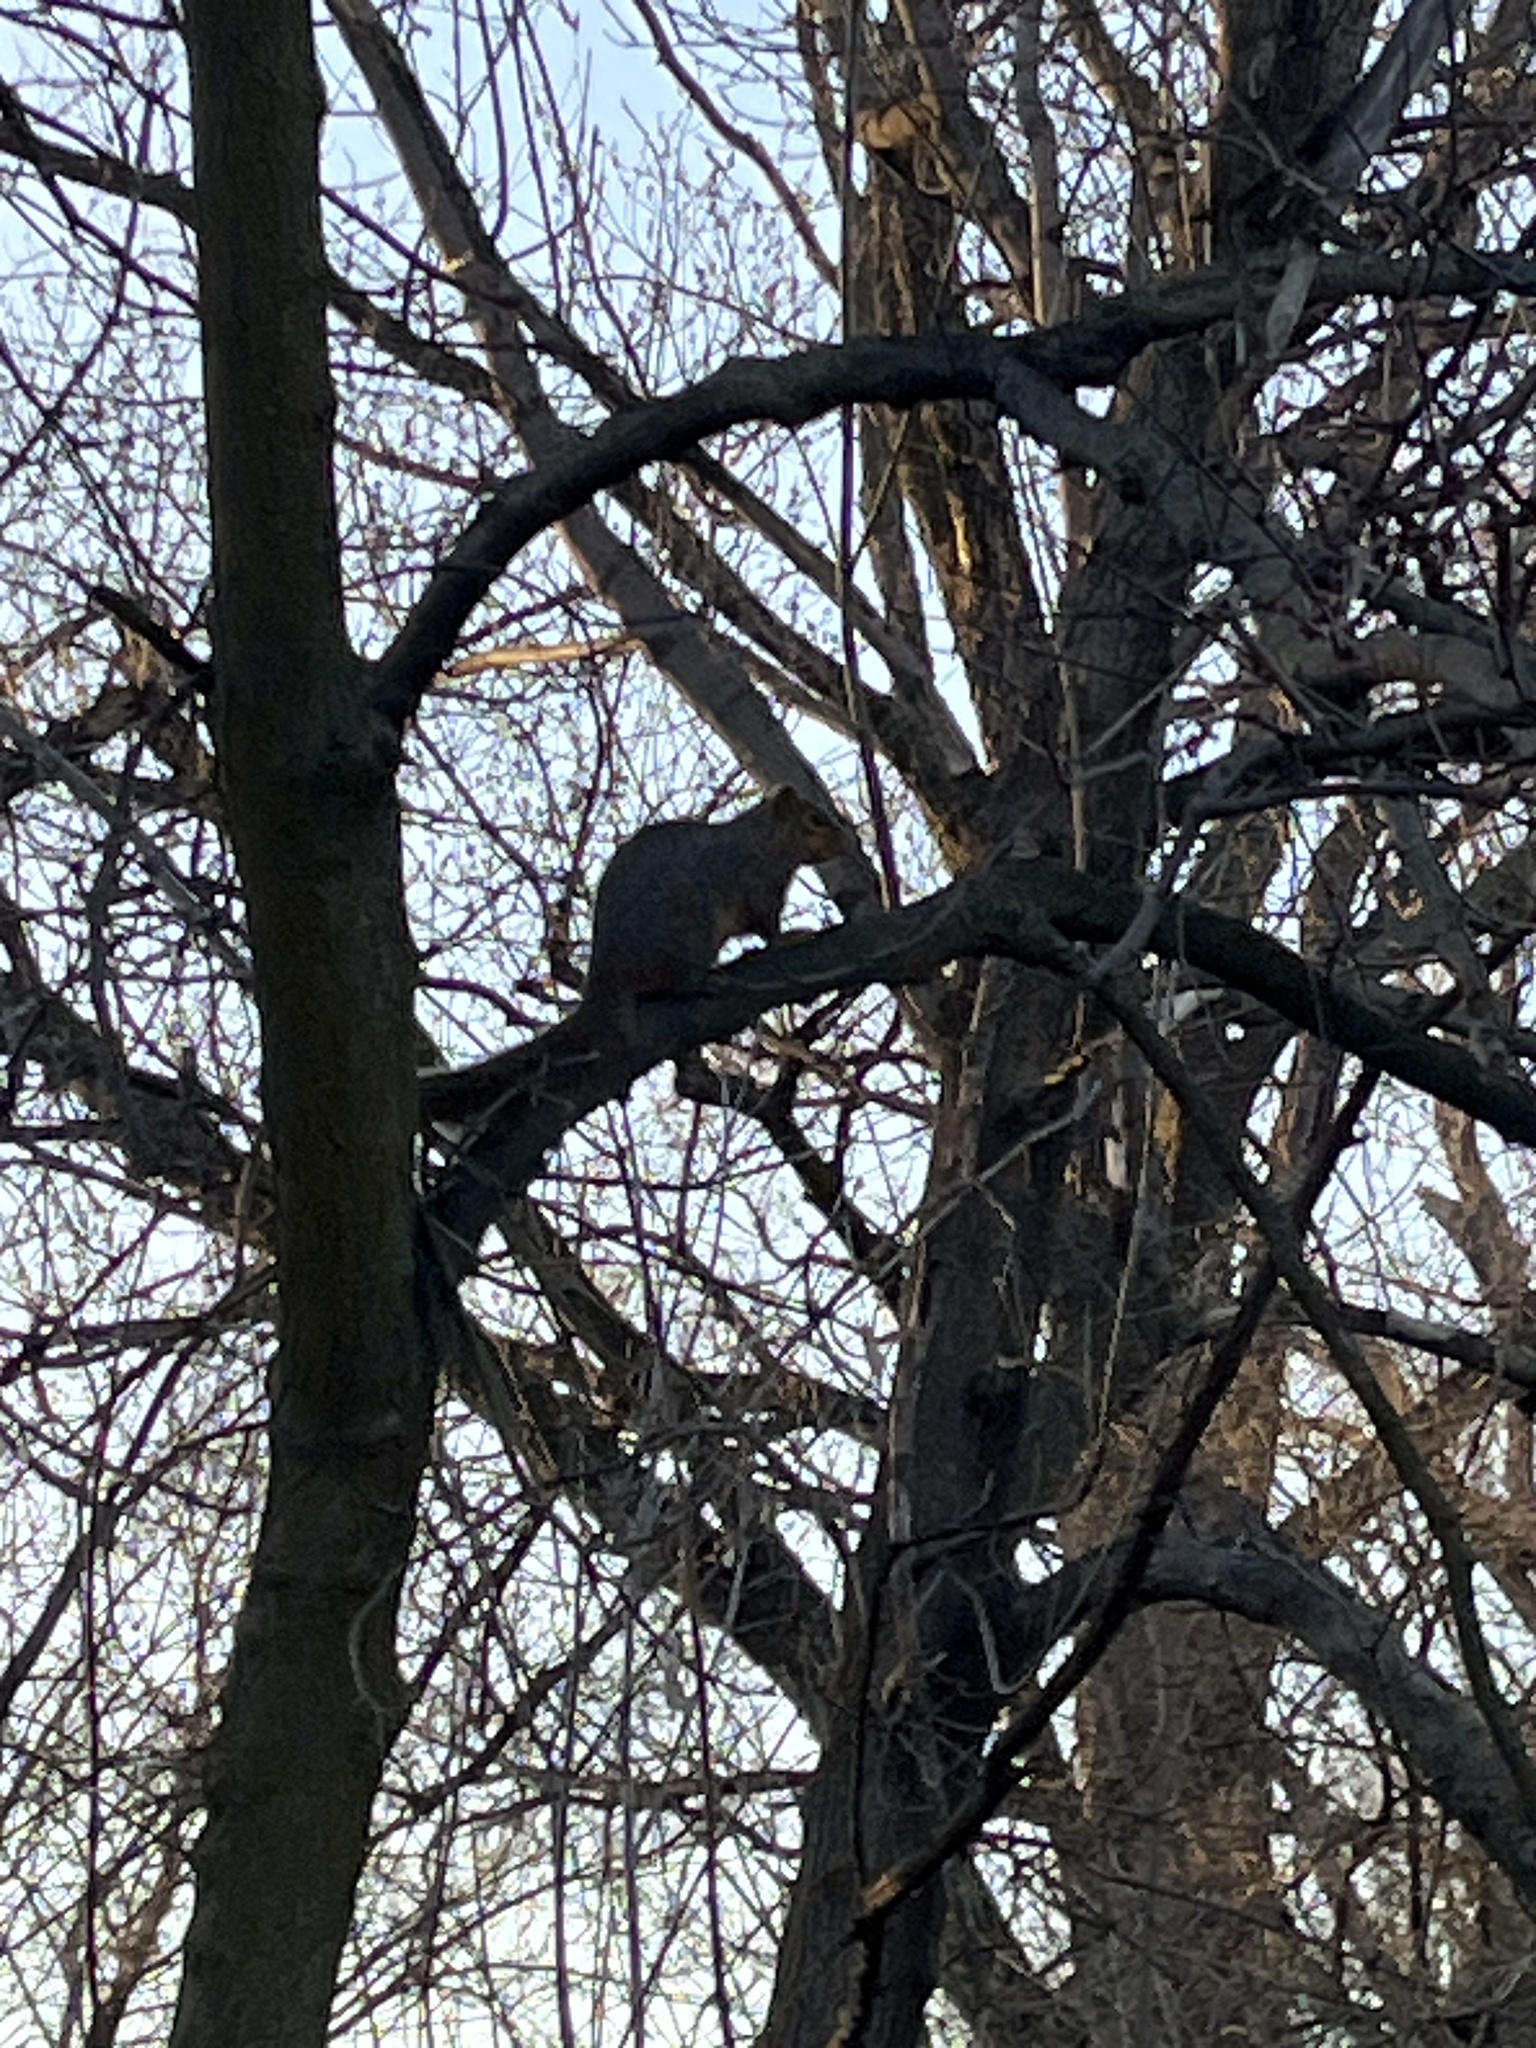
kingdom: Animalia
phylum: Chordata
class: Mammalia
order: Rodentia
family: Sciuridae
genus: Sciurus
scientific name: Sciurus niger
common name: Fox squirrel
